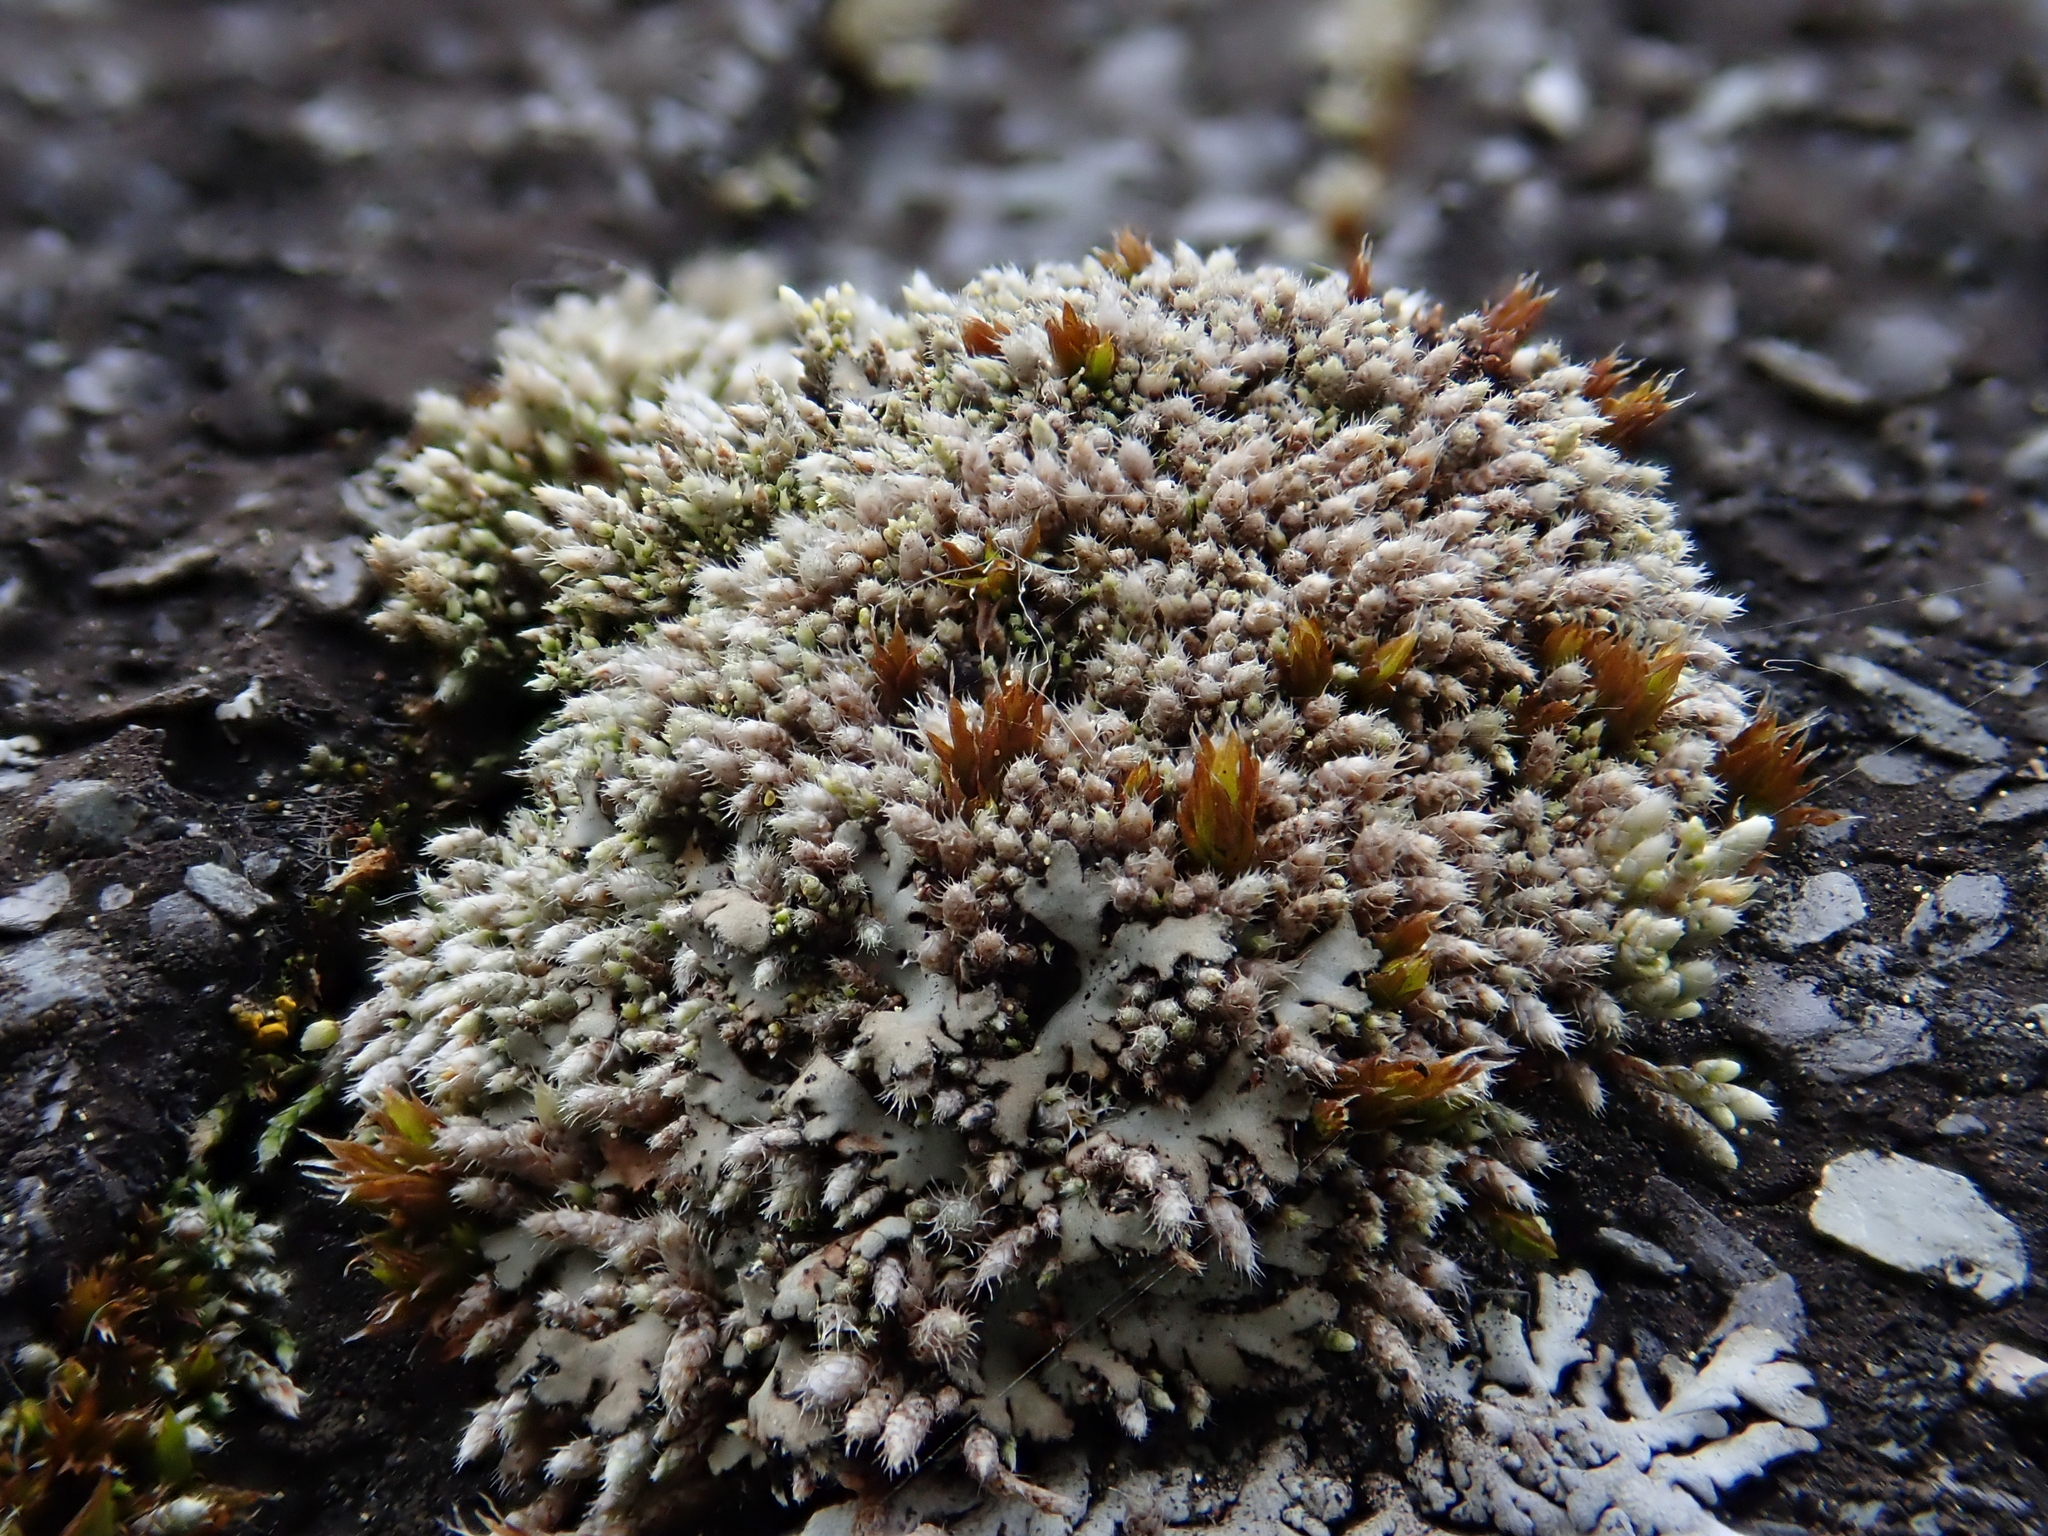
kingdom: Plantae
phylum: Bryophyta
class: Bryopsida
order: Bryales
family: Bryaceae
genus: Bryum
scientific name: Bryum argenteum
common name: Silver-moss
